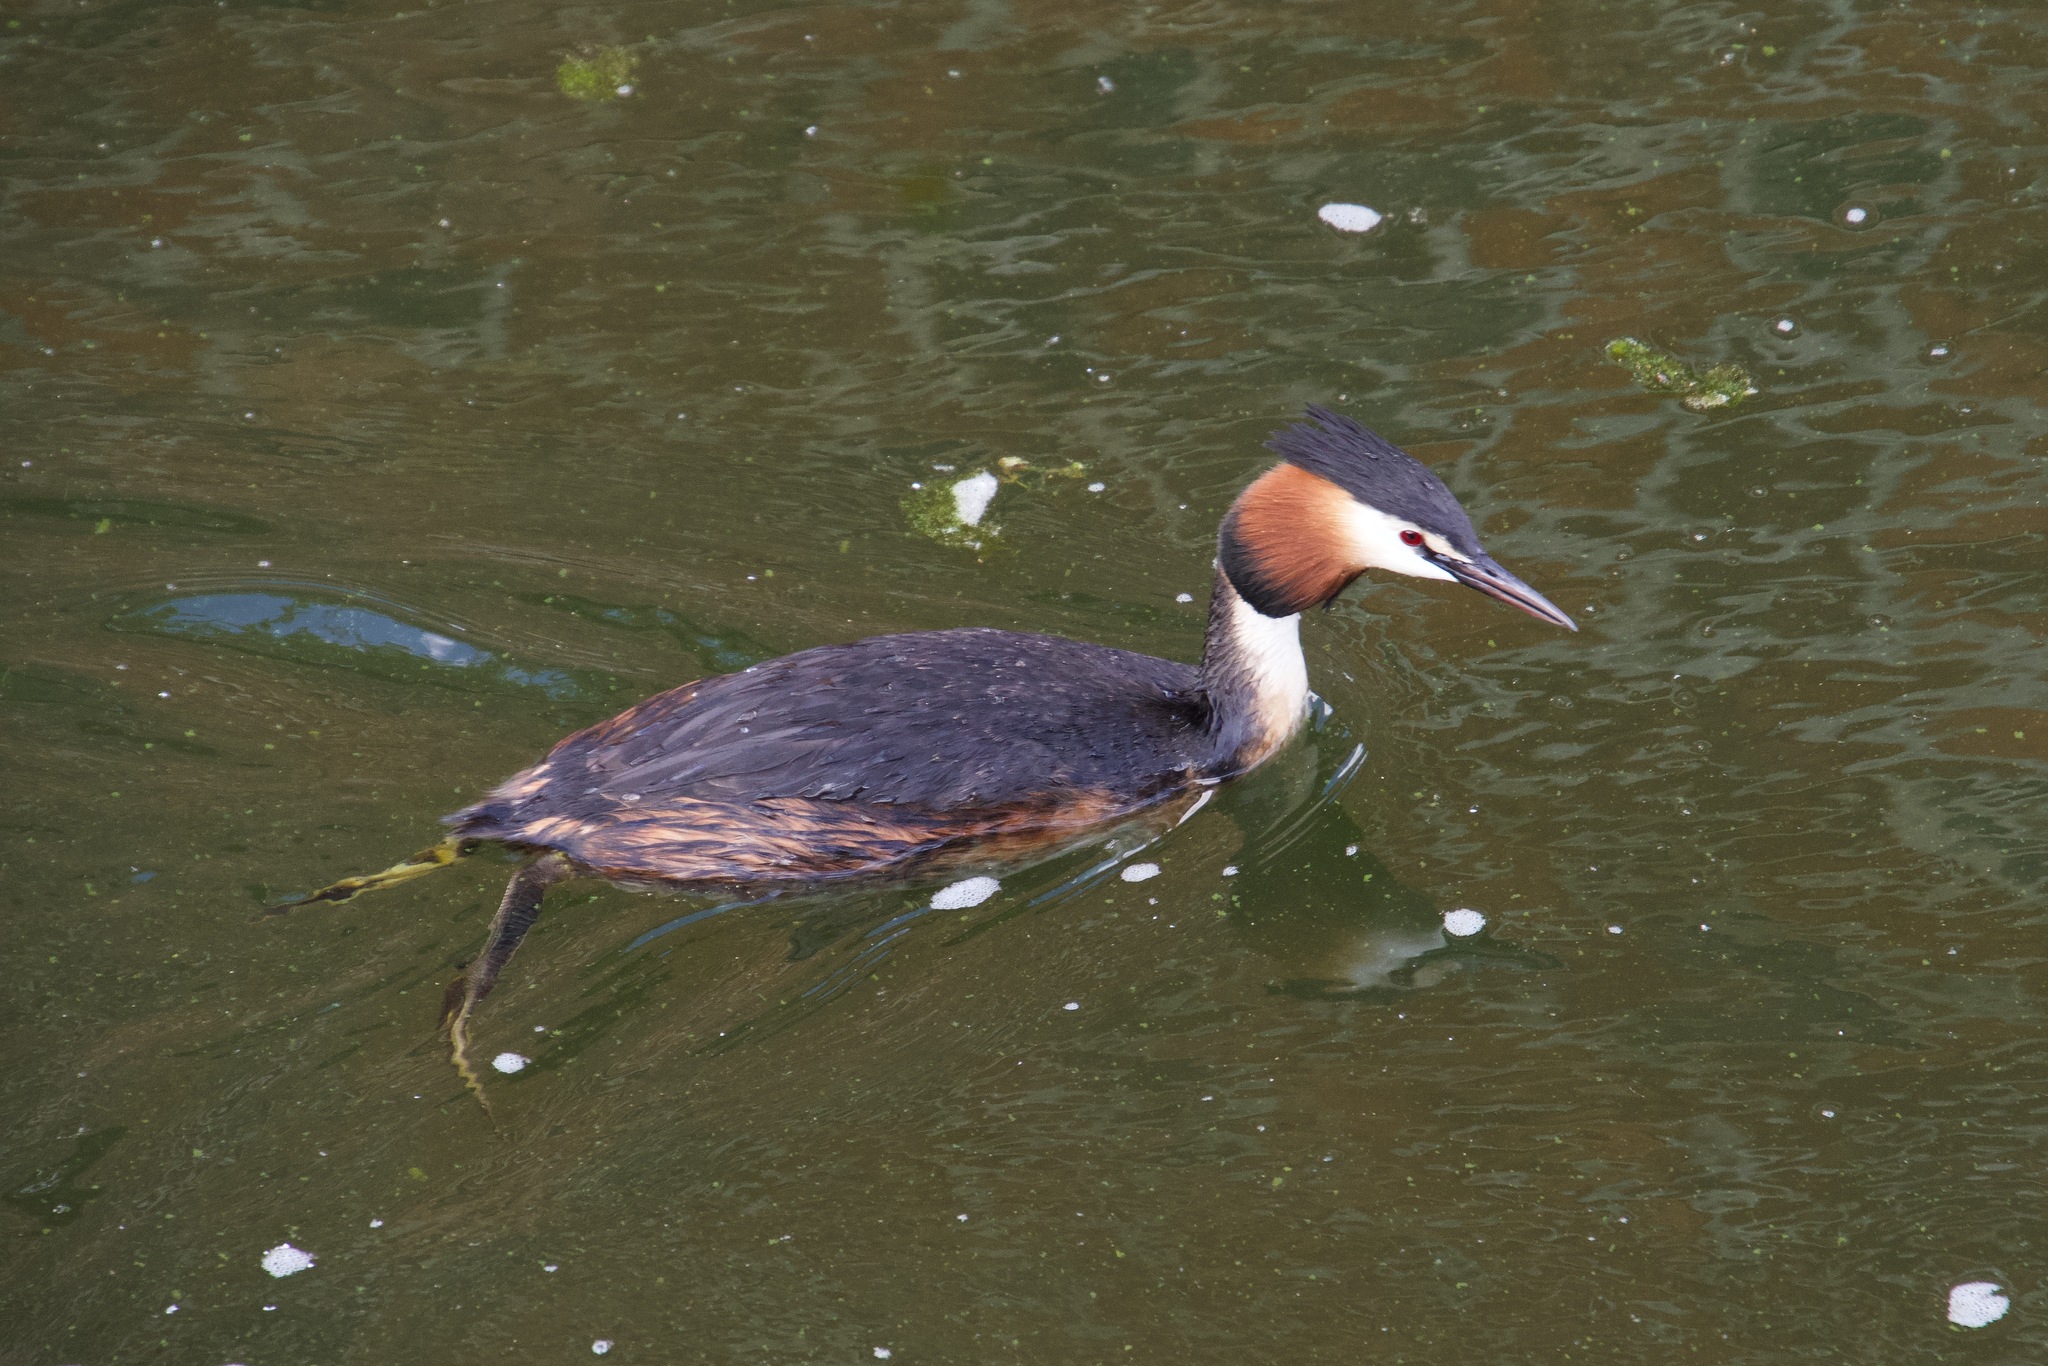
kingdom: Animalia
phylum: Chordata
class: Aves
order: Podicipediformes
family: Podicipedidae
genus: Podiceps
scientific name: Podiceps cristatus
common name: Great crested grebe
